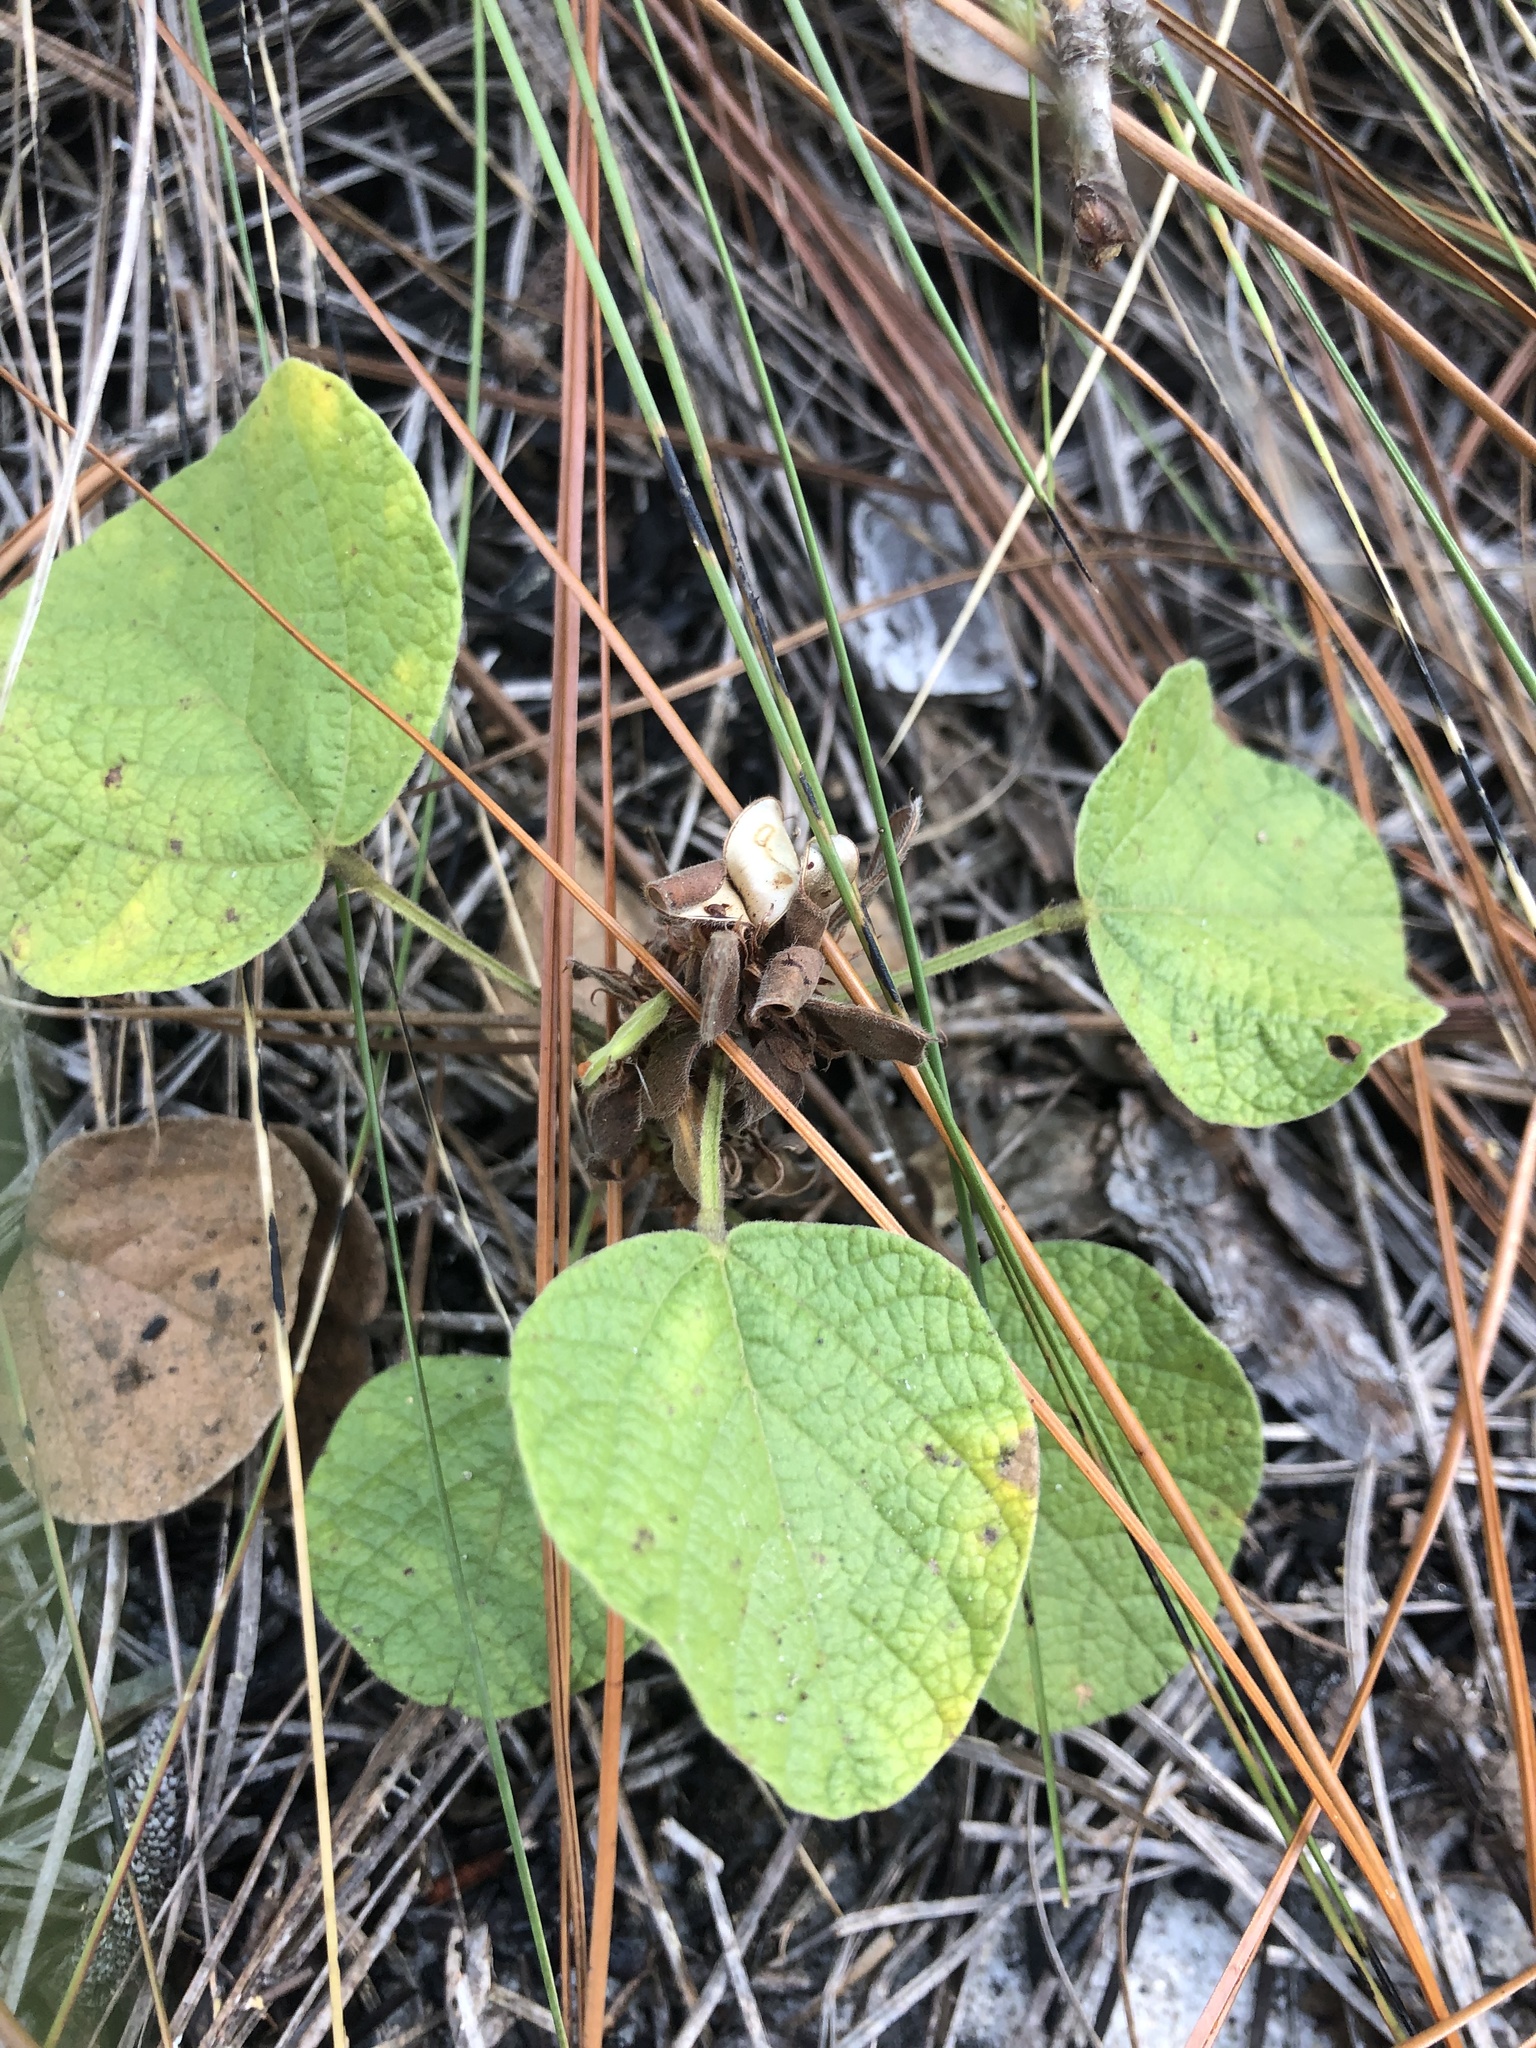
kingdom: Plantae
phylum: Tracheophyta
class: Magnoliopsida
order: Fabales
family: Fabaceae
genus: Rhynchosia
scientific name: Rhynchosia reniformis
